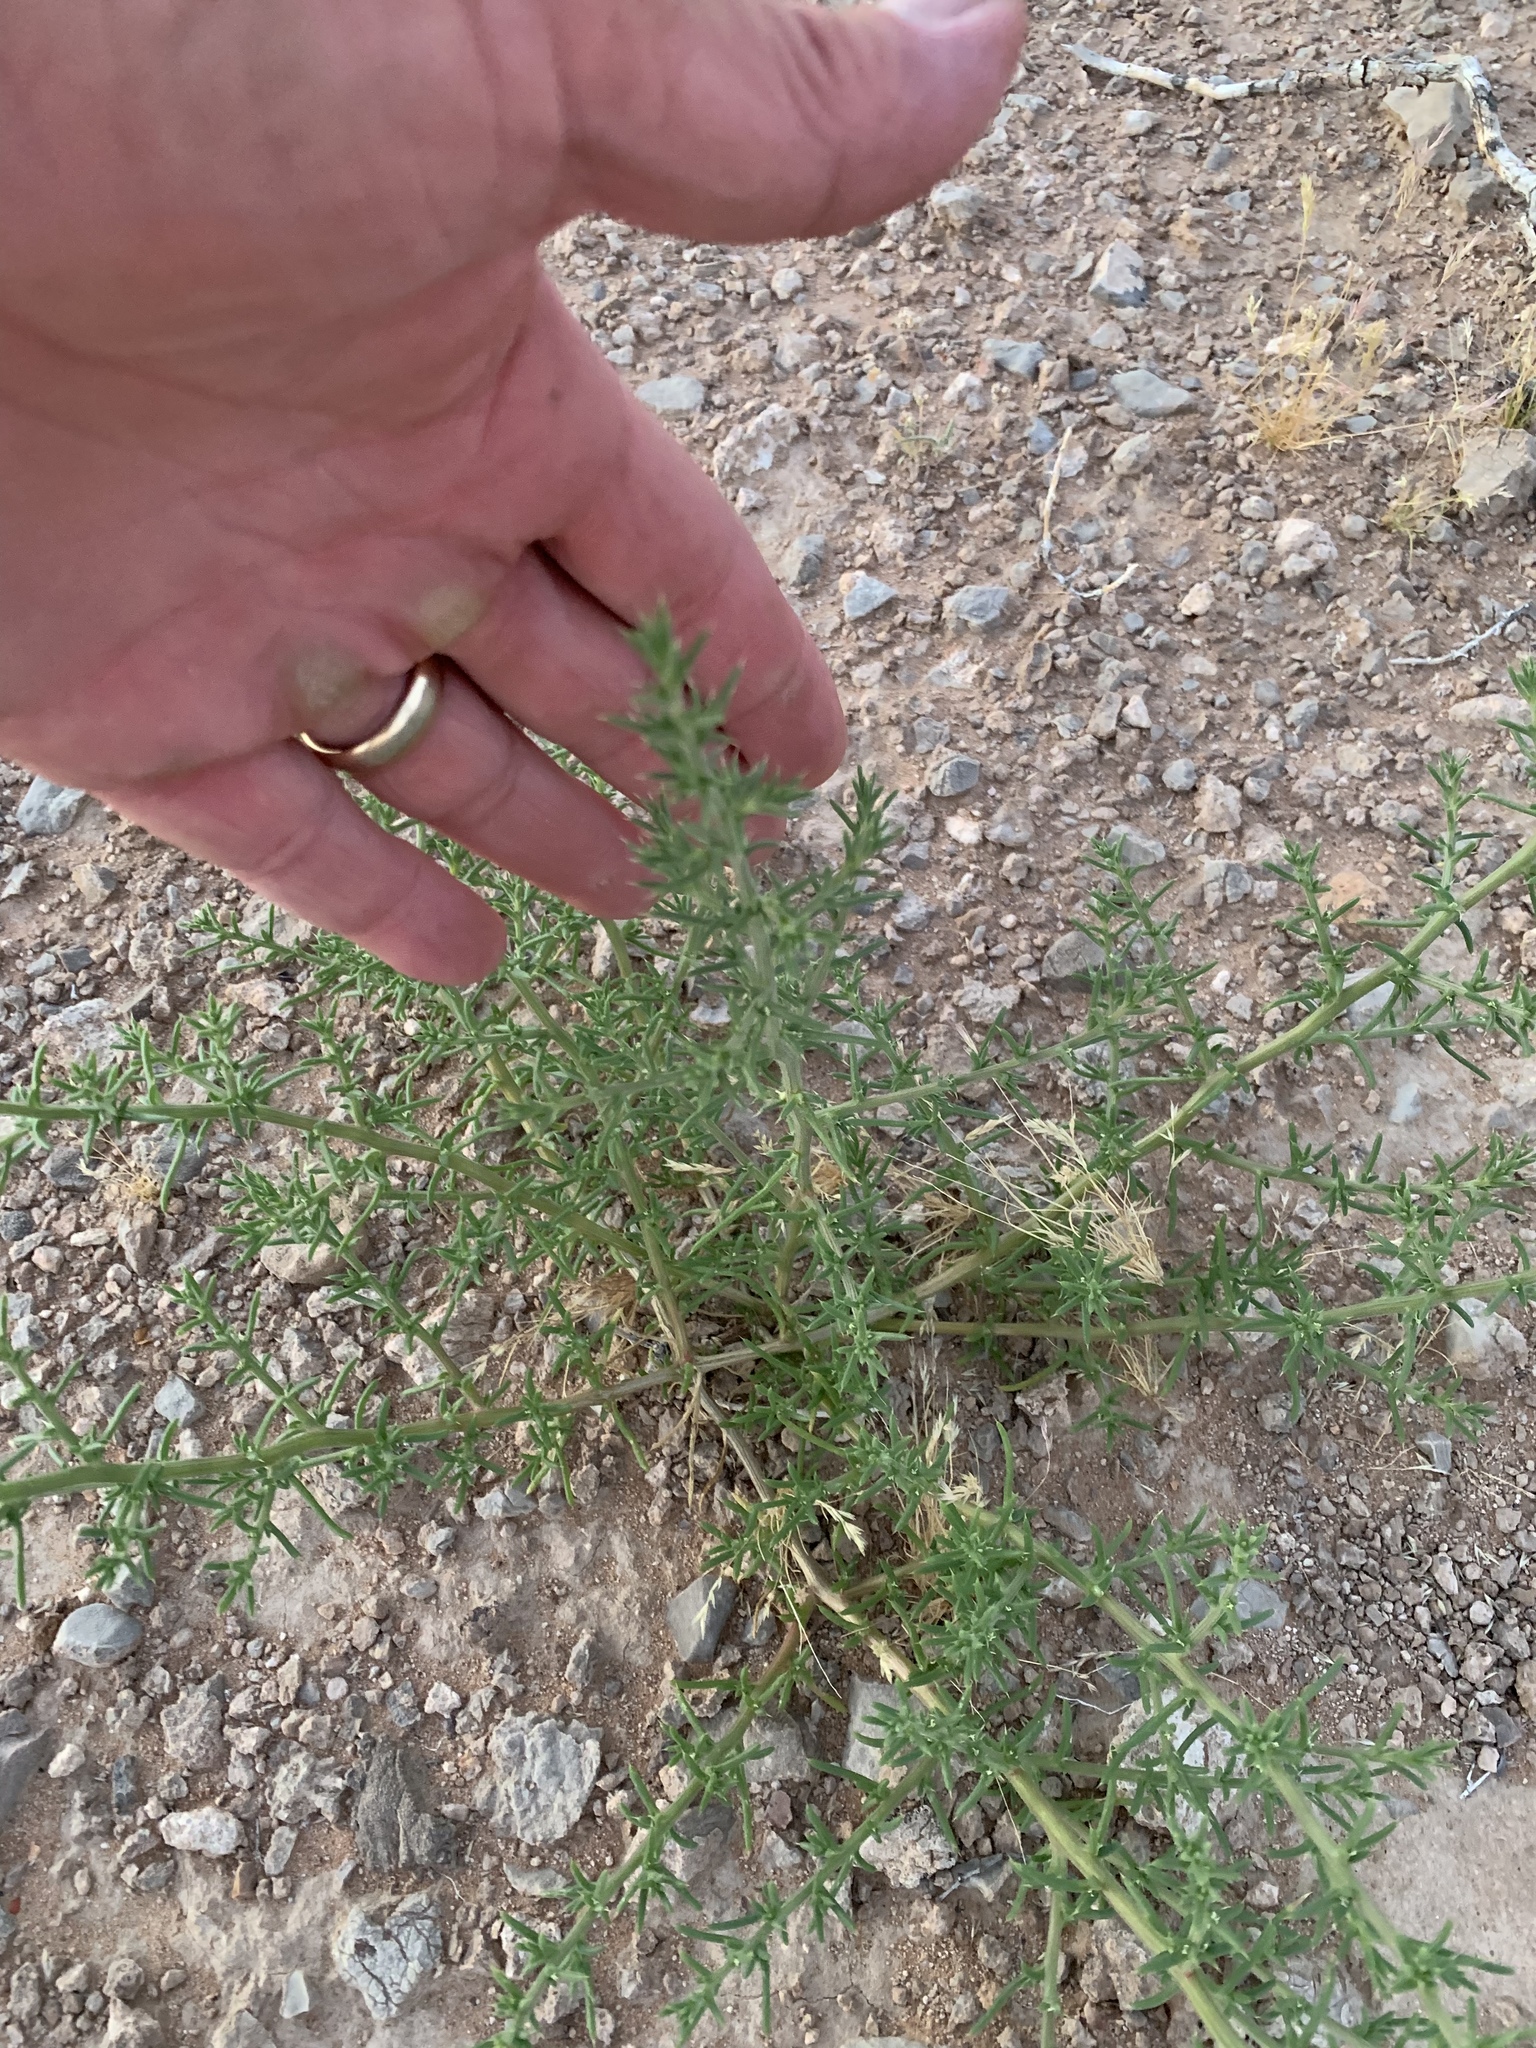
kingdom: Plantae
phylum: Tracheophyta
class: Magnoliopsida
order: Caryophyllales
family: Amaranthaceae
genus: Salsola
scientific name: Salsola tragus
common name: Prickly russian thistle
